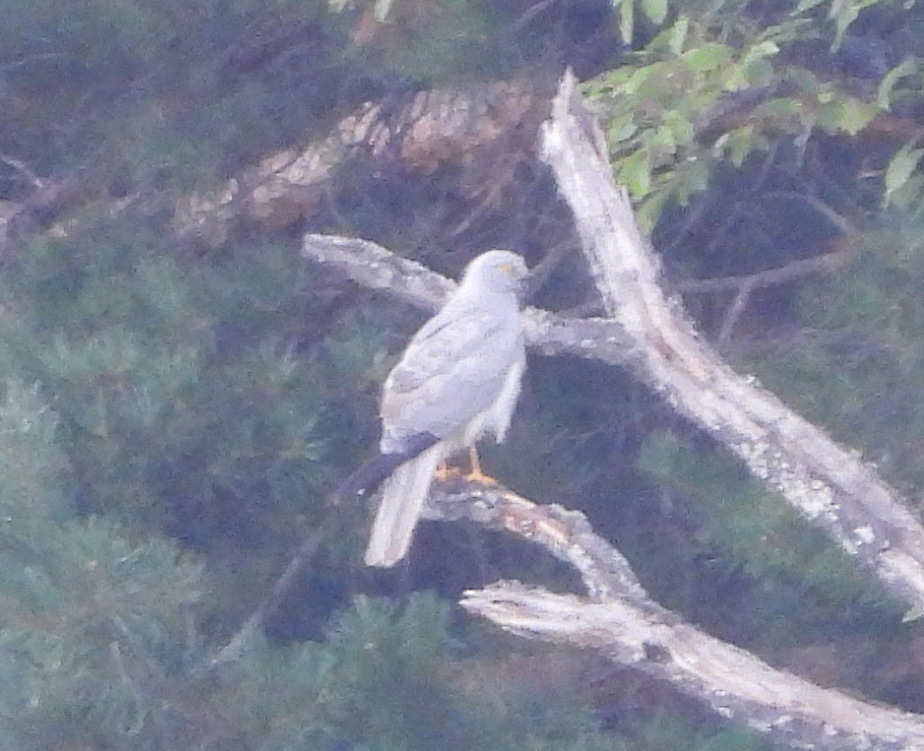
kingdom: Animalia
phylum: Chordata
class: Aves
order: Accipitriformes
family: Accipitridae
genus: Circus
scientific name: Circus macrourus
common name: Pallid harrier
